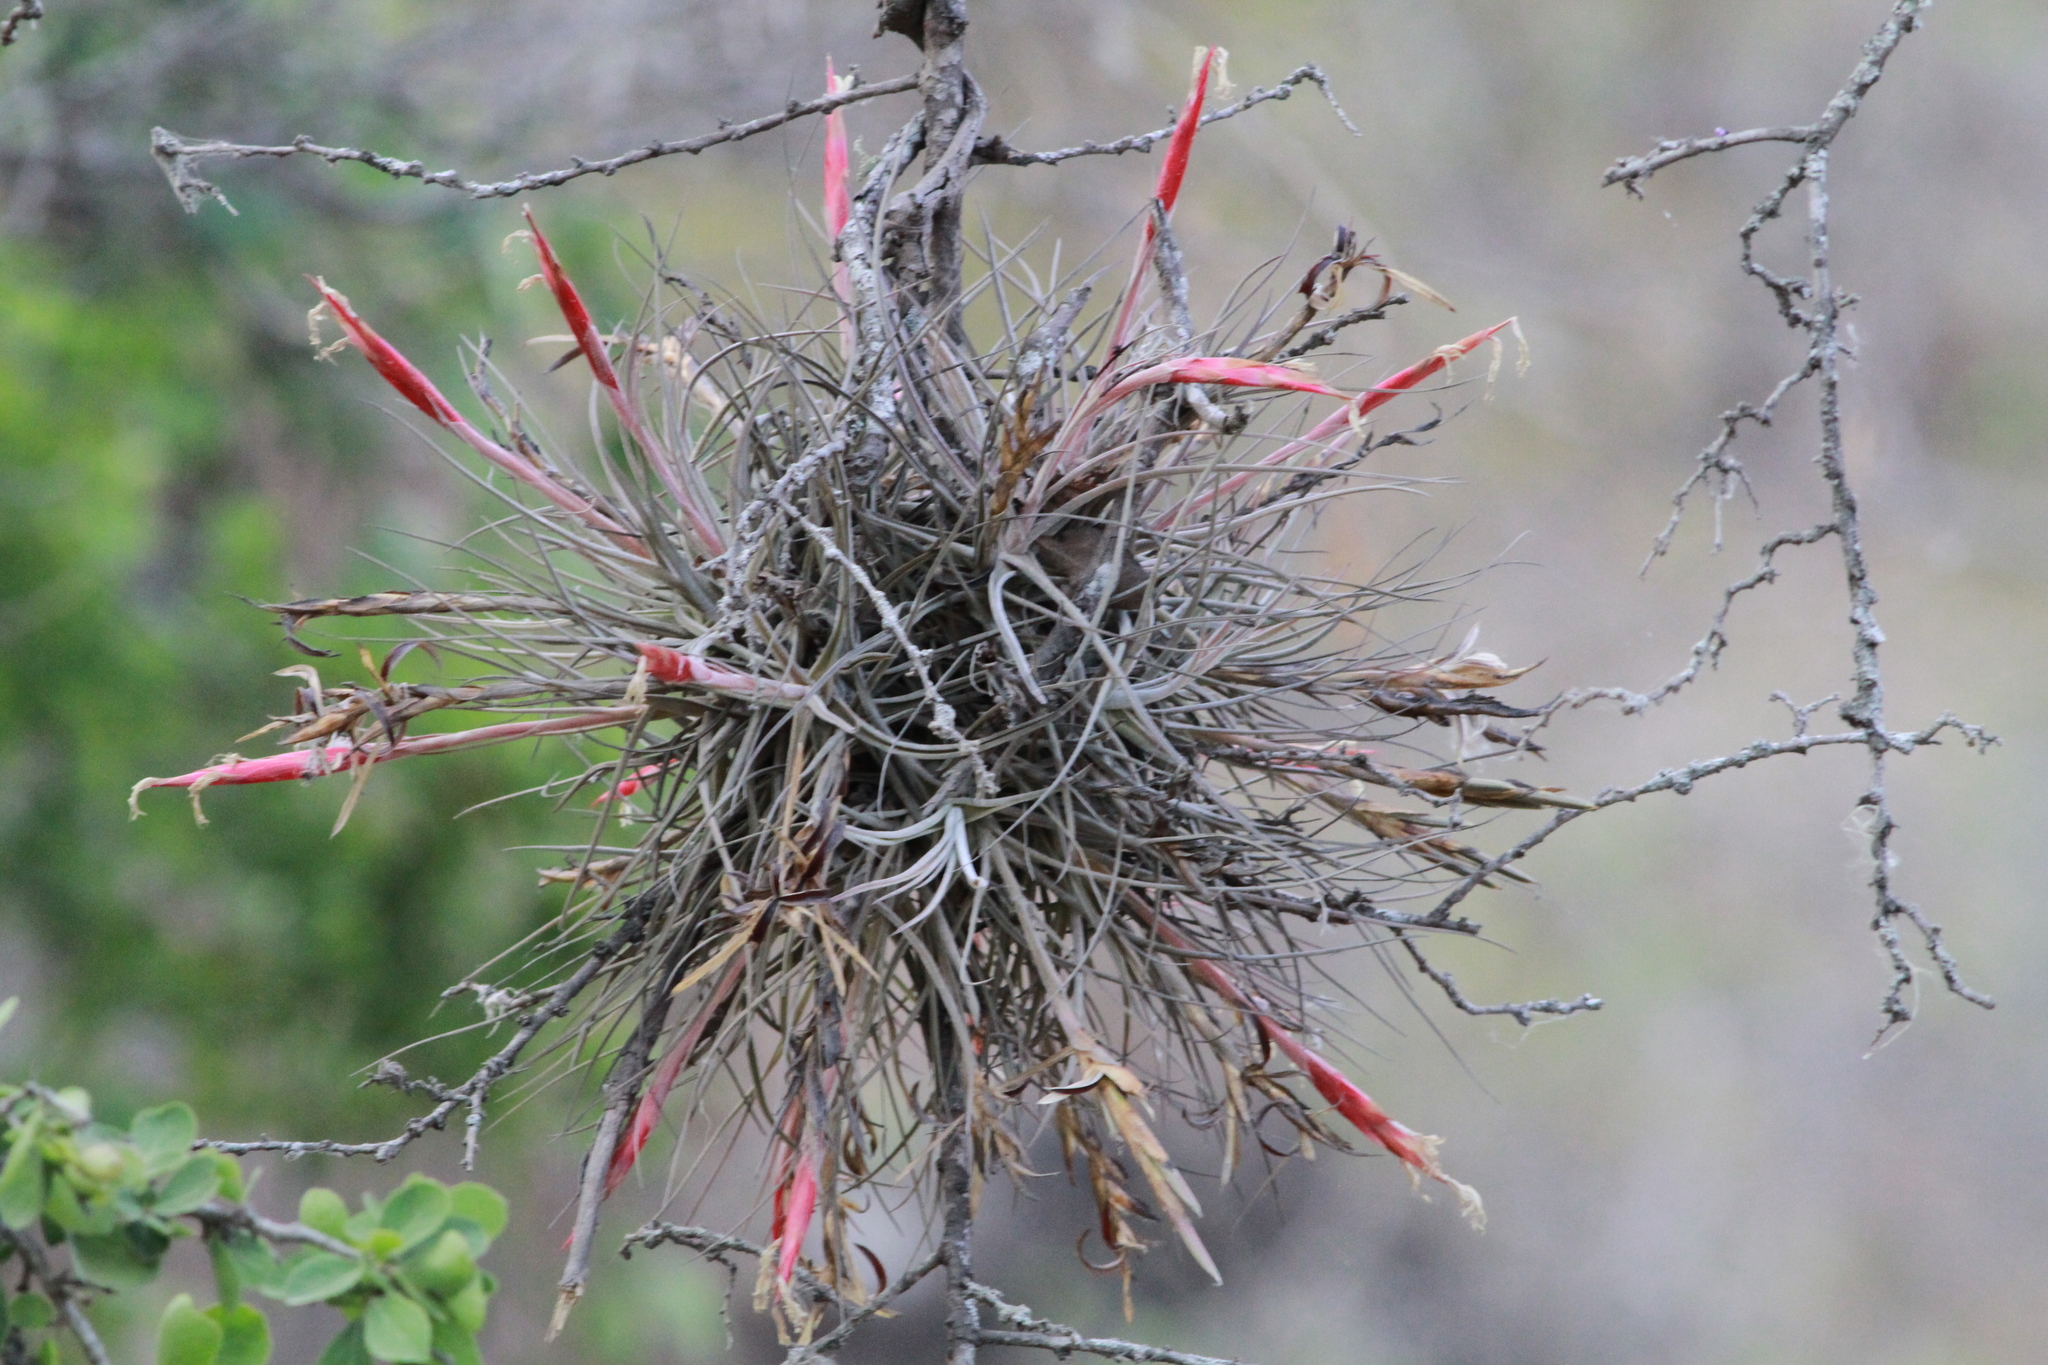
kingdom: Plantae
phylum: Tracheophyta
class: Liliopsida
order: Poales
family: Bromeliaceae
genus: Tillandsia
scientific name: Tillandsia schiedeana
